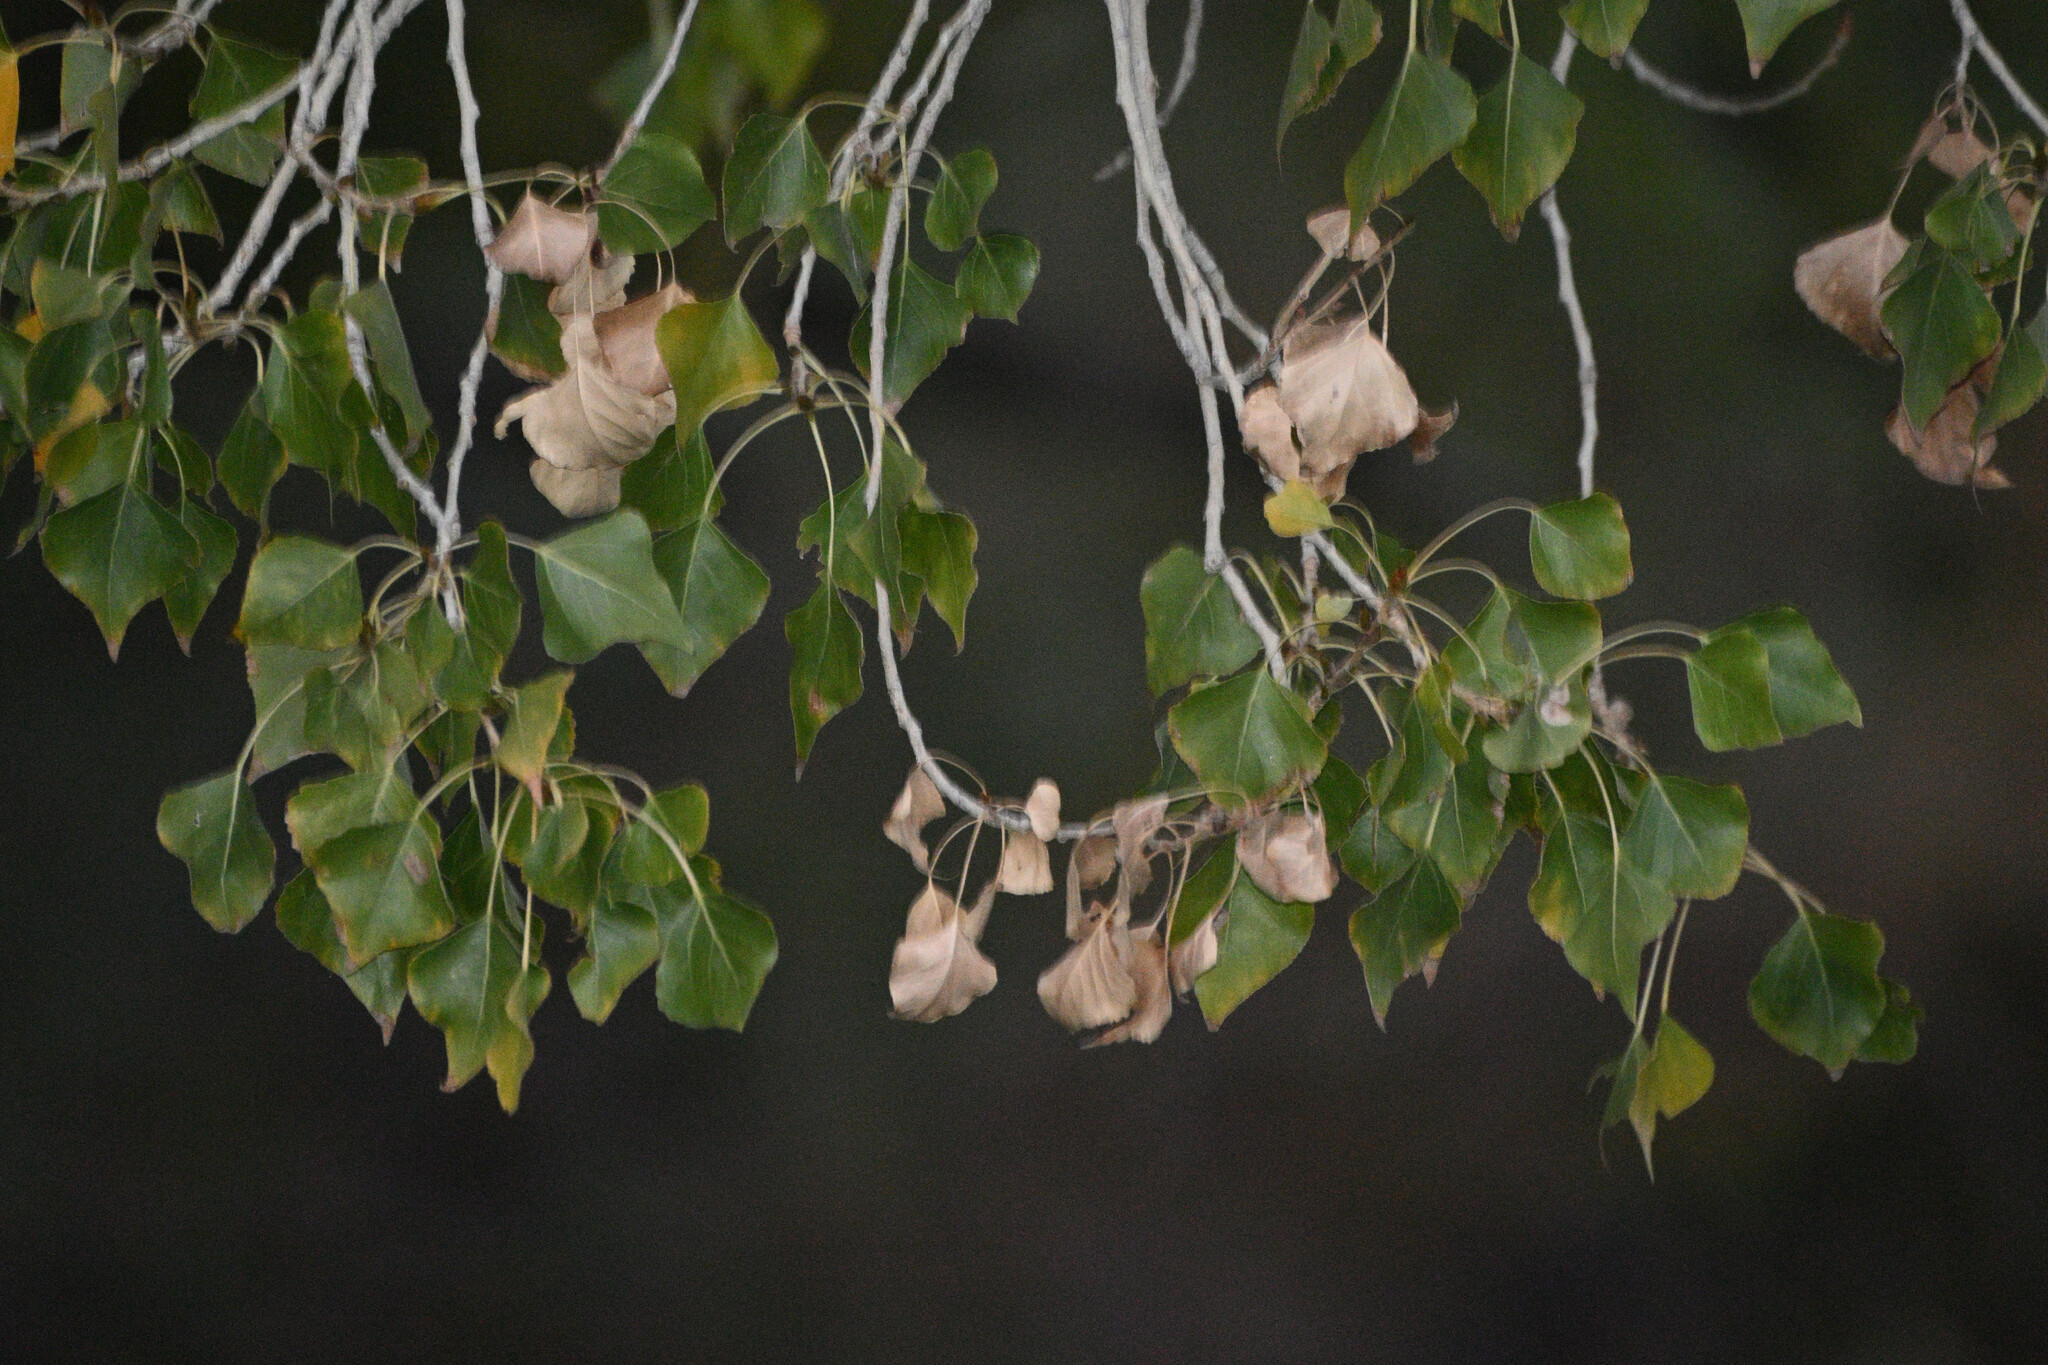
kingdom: Plantae
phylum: Tracheophyta
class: Magnoliopsida
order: Malpighiales
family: Salicaceae
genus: Populus
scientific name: Populus fremontii
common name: Fremont's cottonwood
